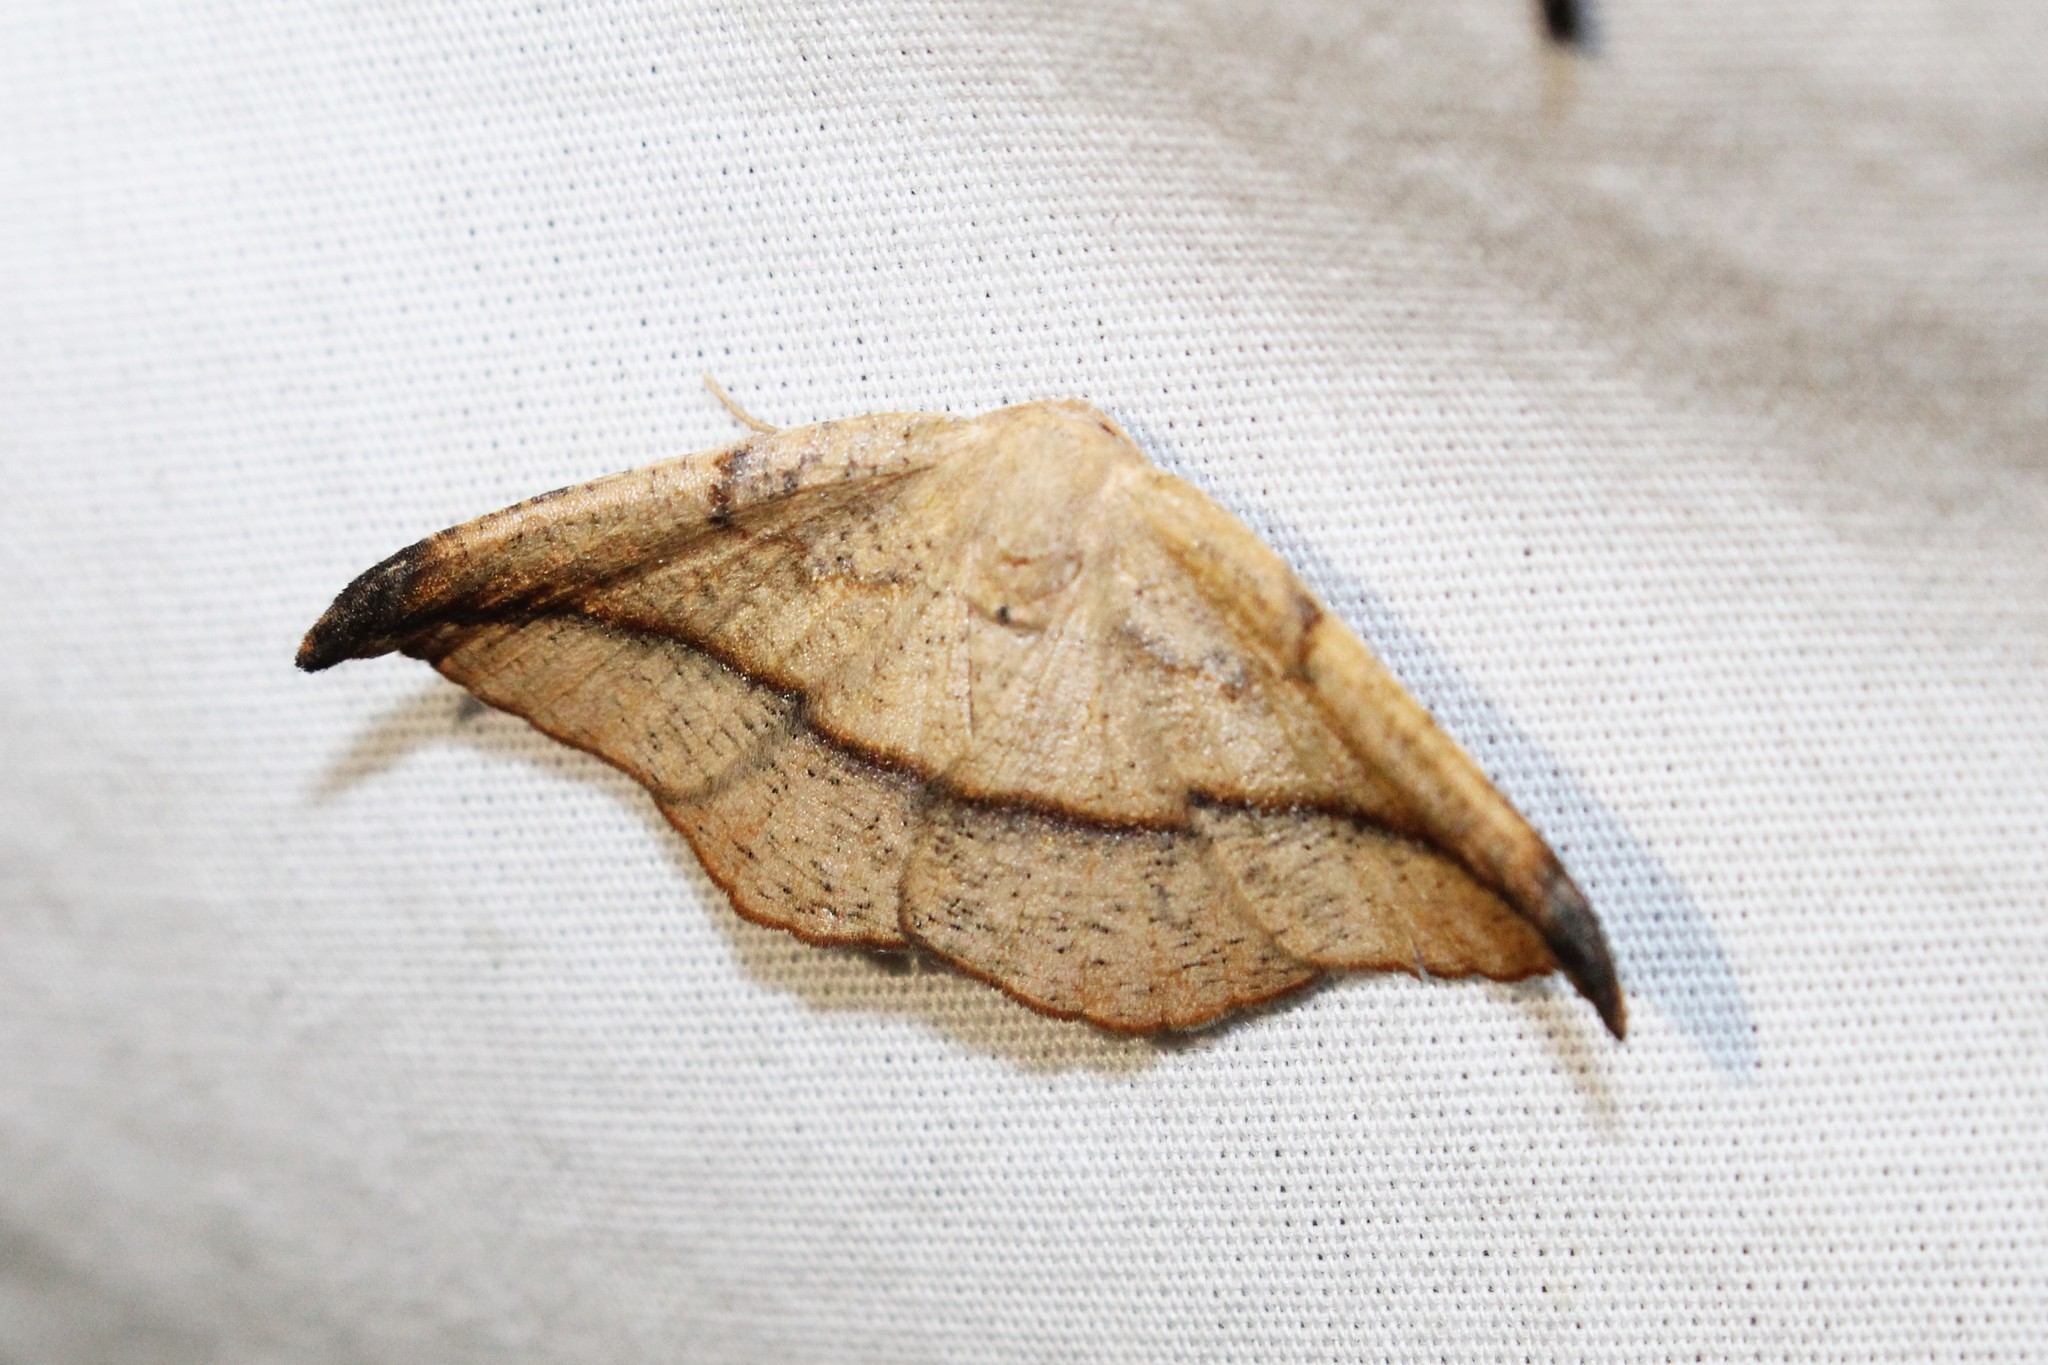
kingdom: Animalia
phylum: Arthropoda
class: Insecta
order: Lepidoptera
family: Geometridae
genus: Patalene
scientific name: Patalene olyzonaria
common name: Juniper geometer moth
